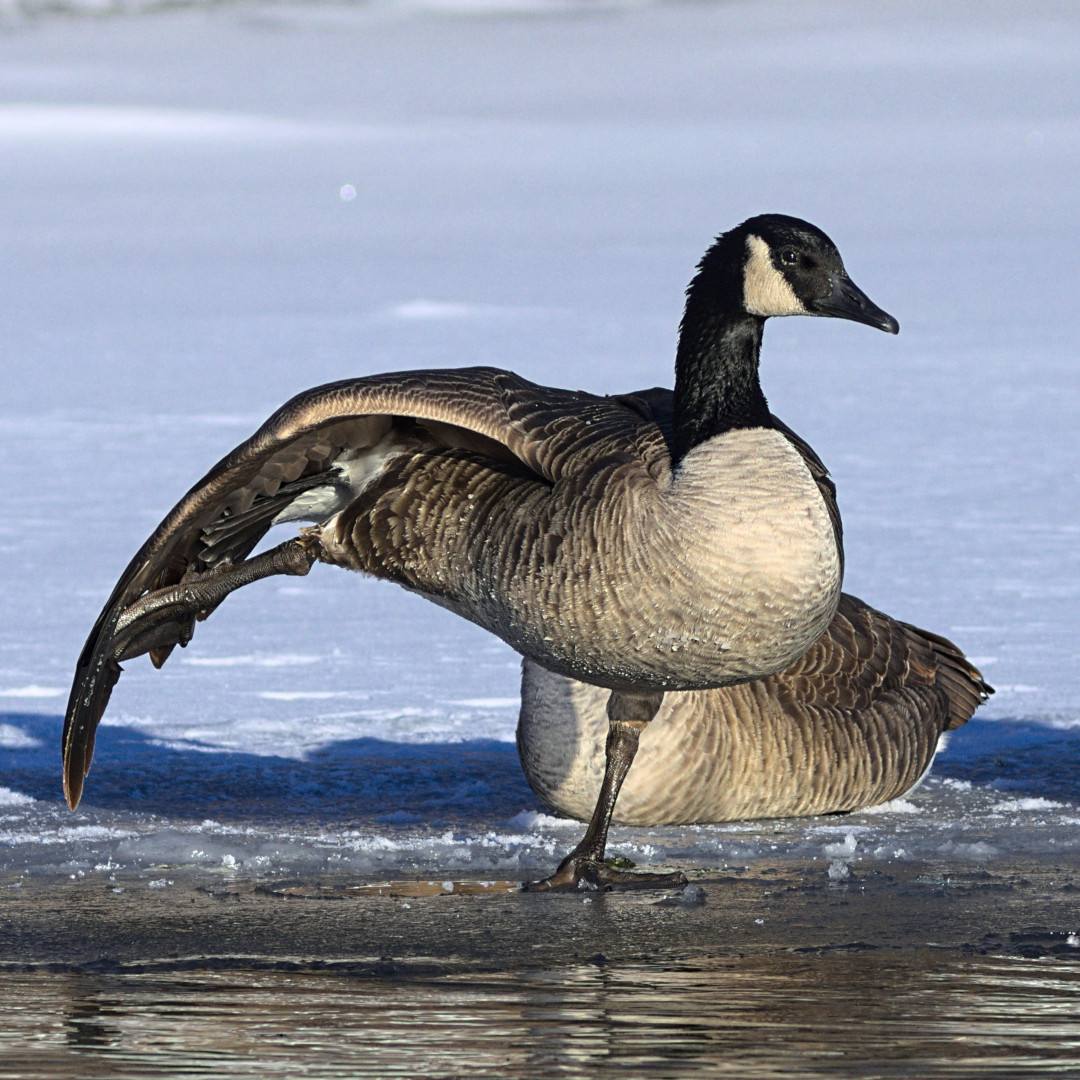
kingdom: Animalia
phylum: Chordata
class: Aves
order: Anseriformes
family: Anatidae
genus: Branta
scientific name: Branta canadensis
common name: Canada goose
